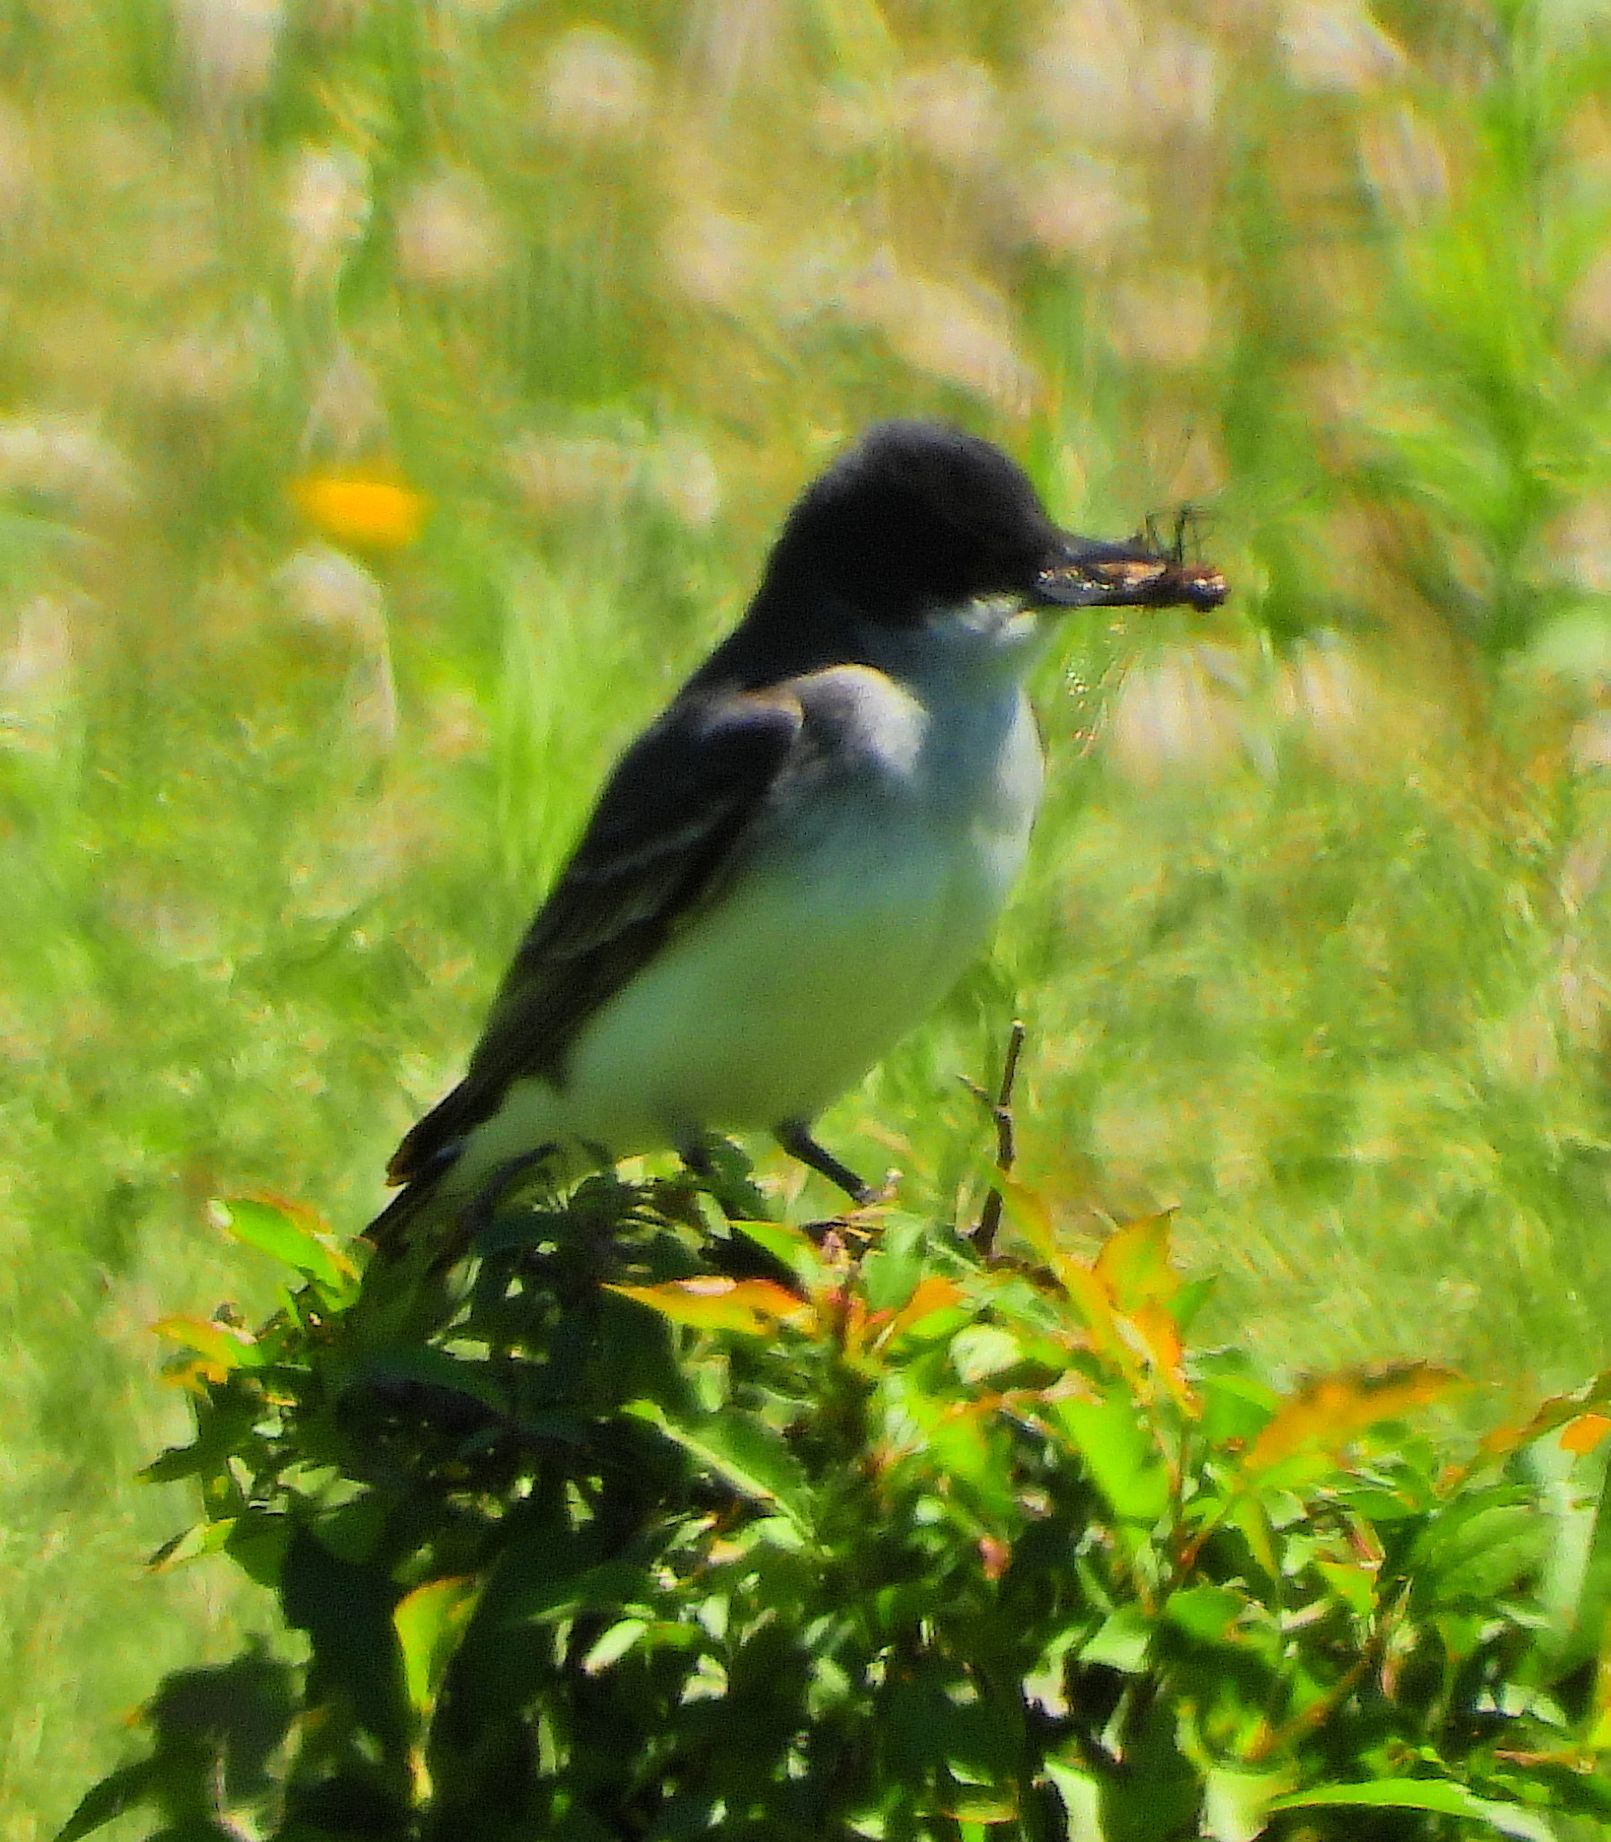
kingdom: Animalia
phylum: Chordata
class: Aves
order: Passeriformes
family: Tyrannidae
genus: Tyrannus
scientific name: Tyrannus tyrannus
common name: Eastern kingbird
